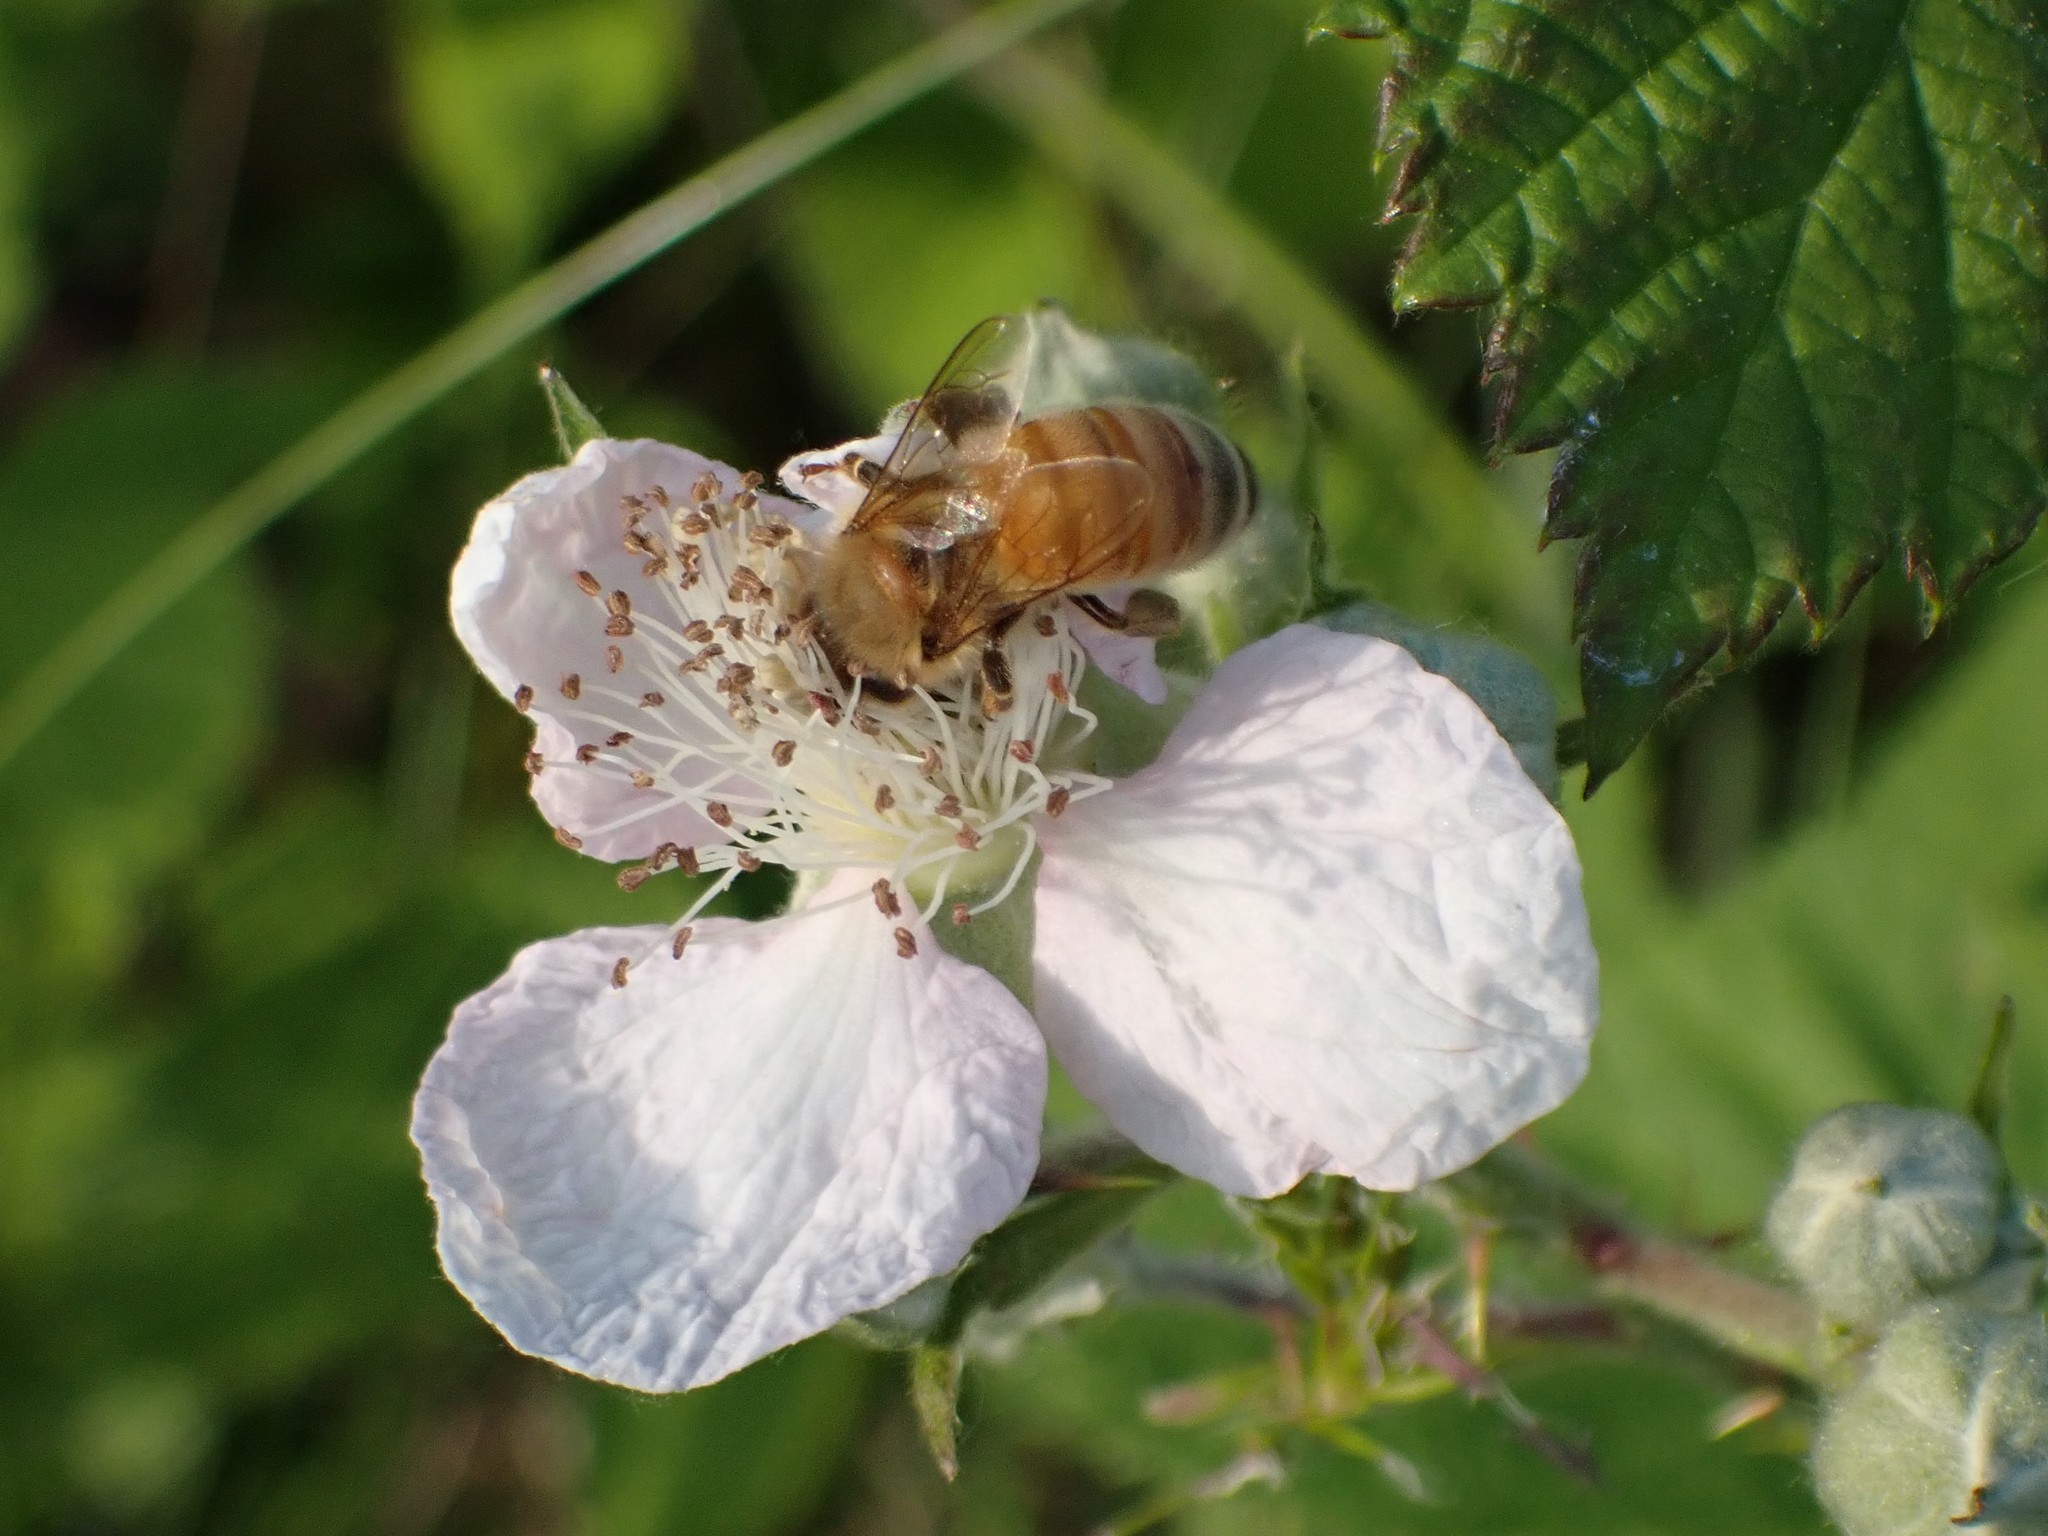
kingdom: Animalia
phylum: Arthropoda
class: Insecta
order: Hymenoptera
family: Apidae
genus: Apis
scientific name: Apis mellifera
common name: Honey bee
